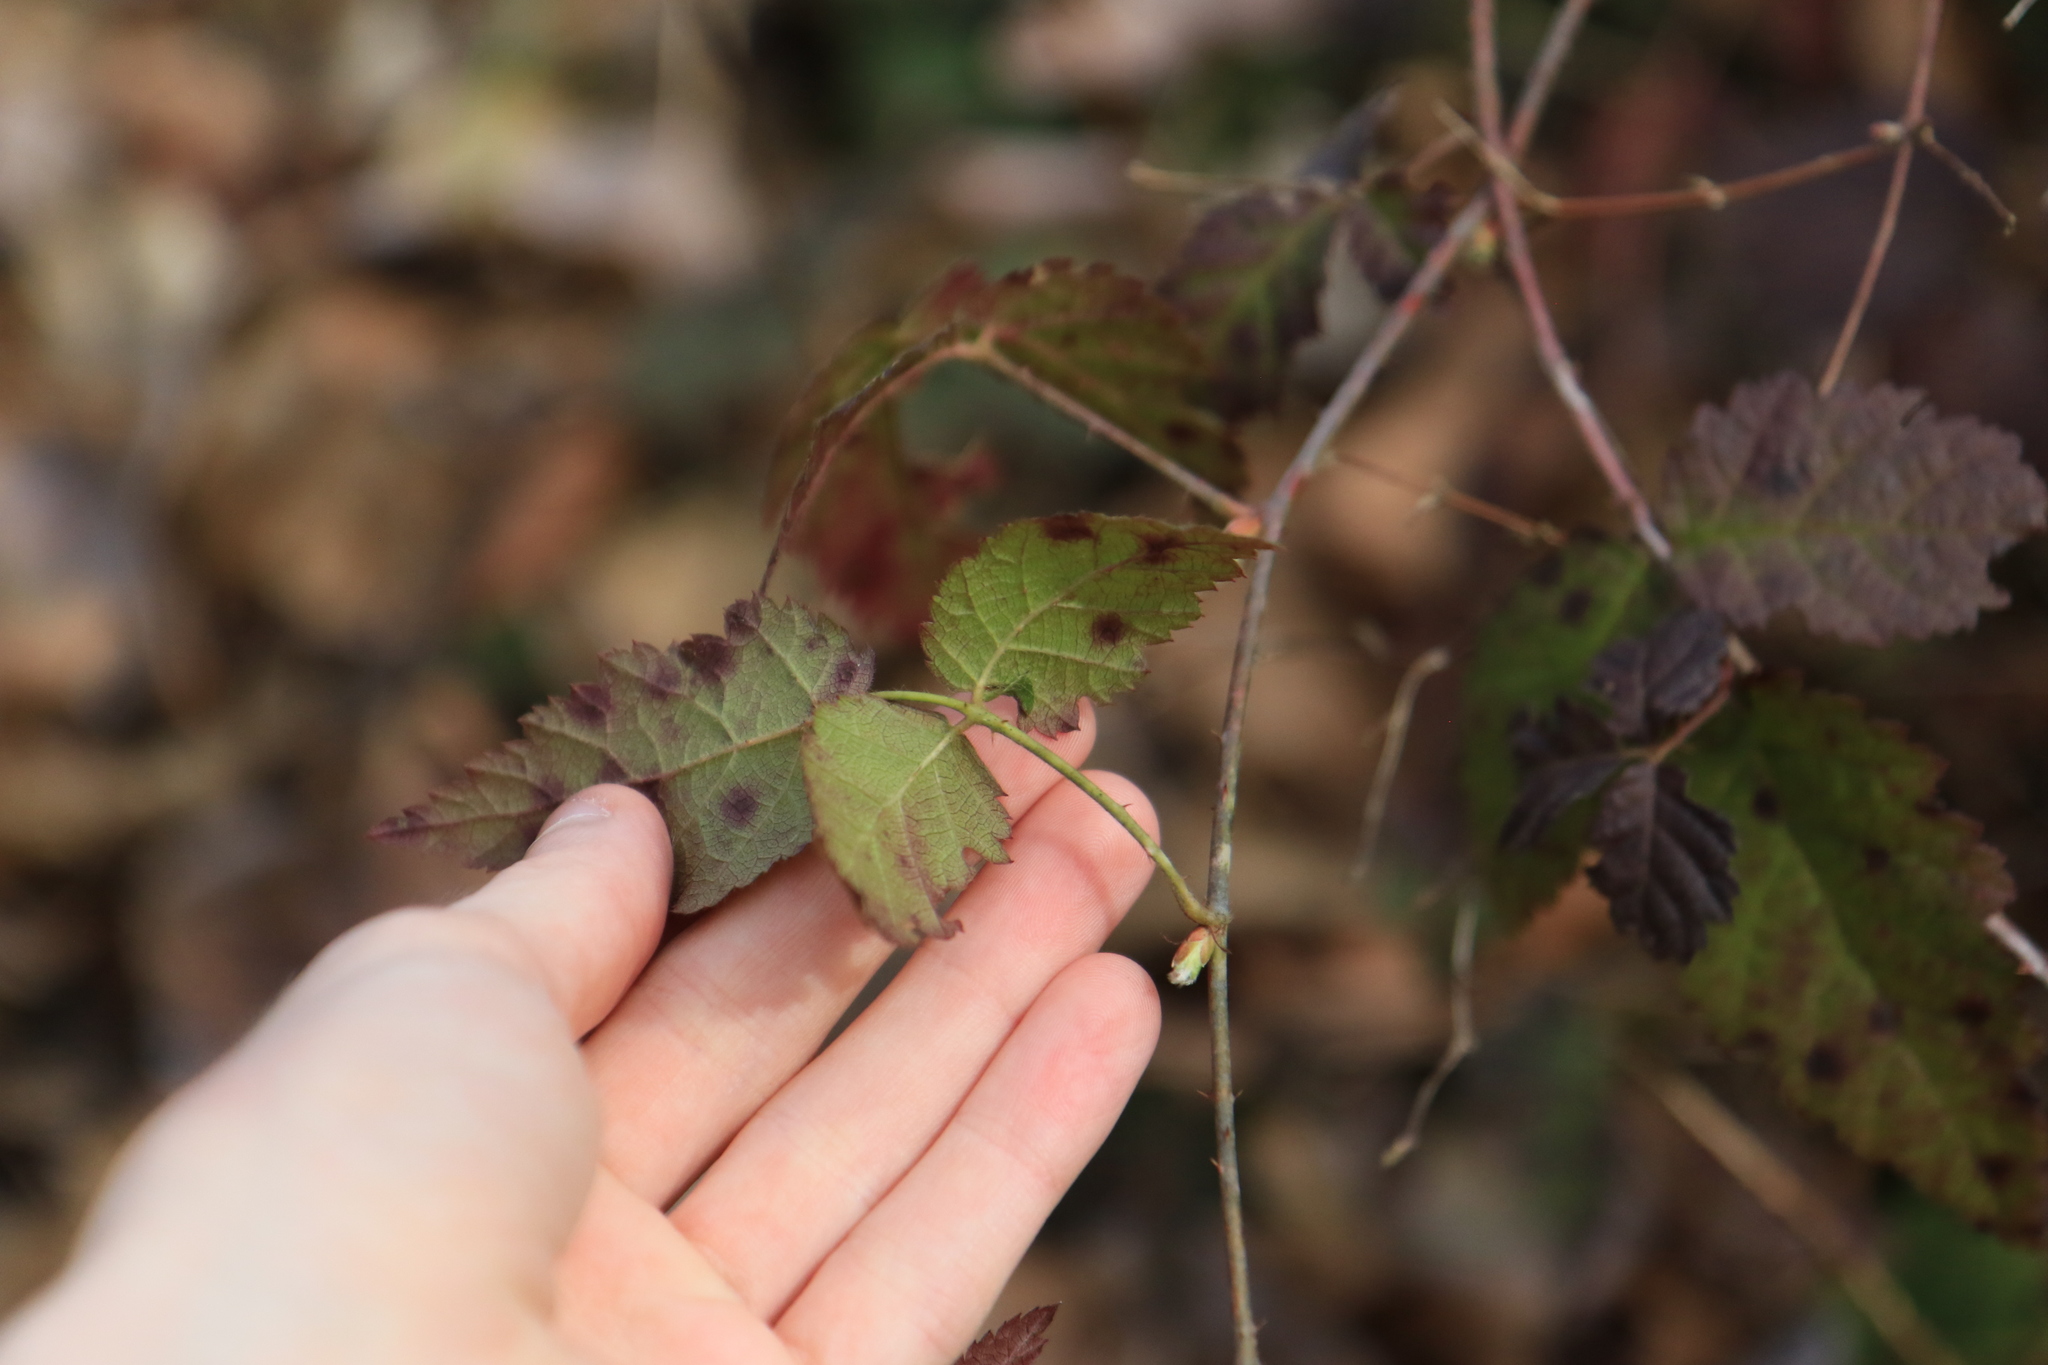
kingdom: Plantae
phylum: Tracheophyta
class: Magnoliopsida
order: Rosales
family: Rosaceae
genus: Rubus
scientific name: Rubus ursinus
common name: Pacific blackberry
